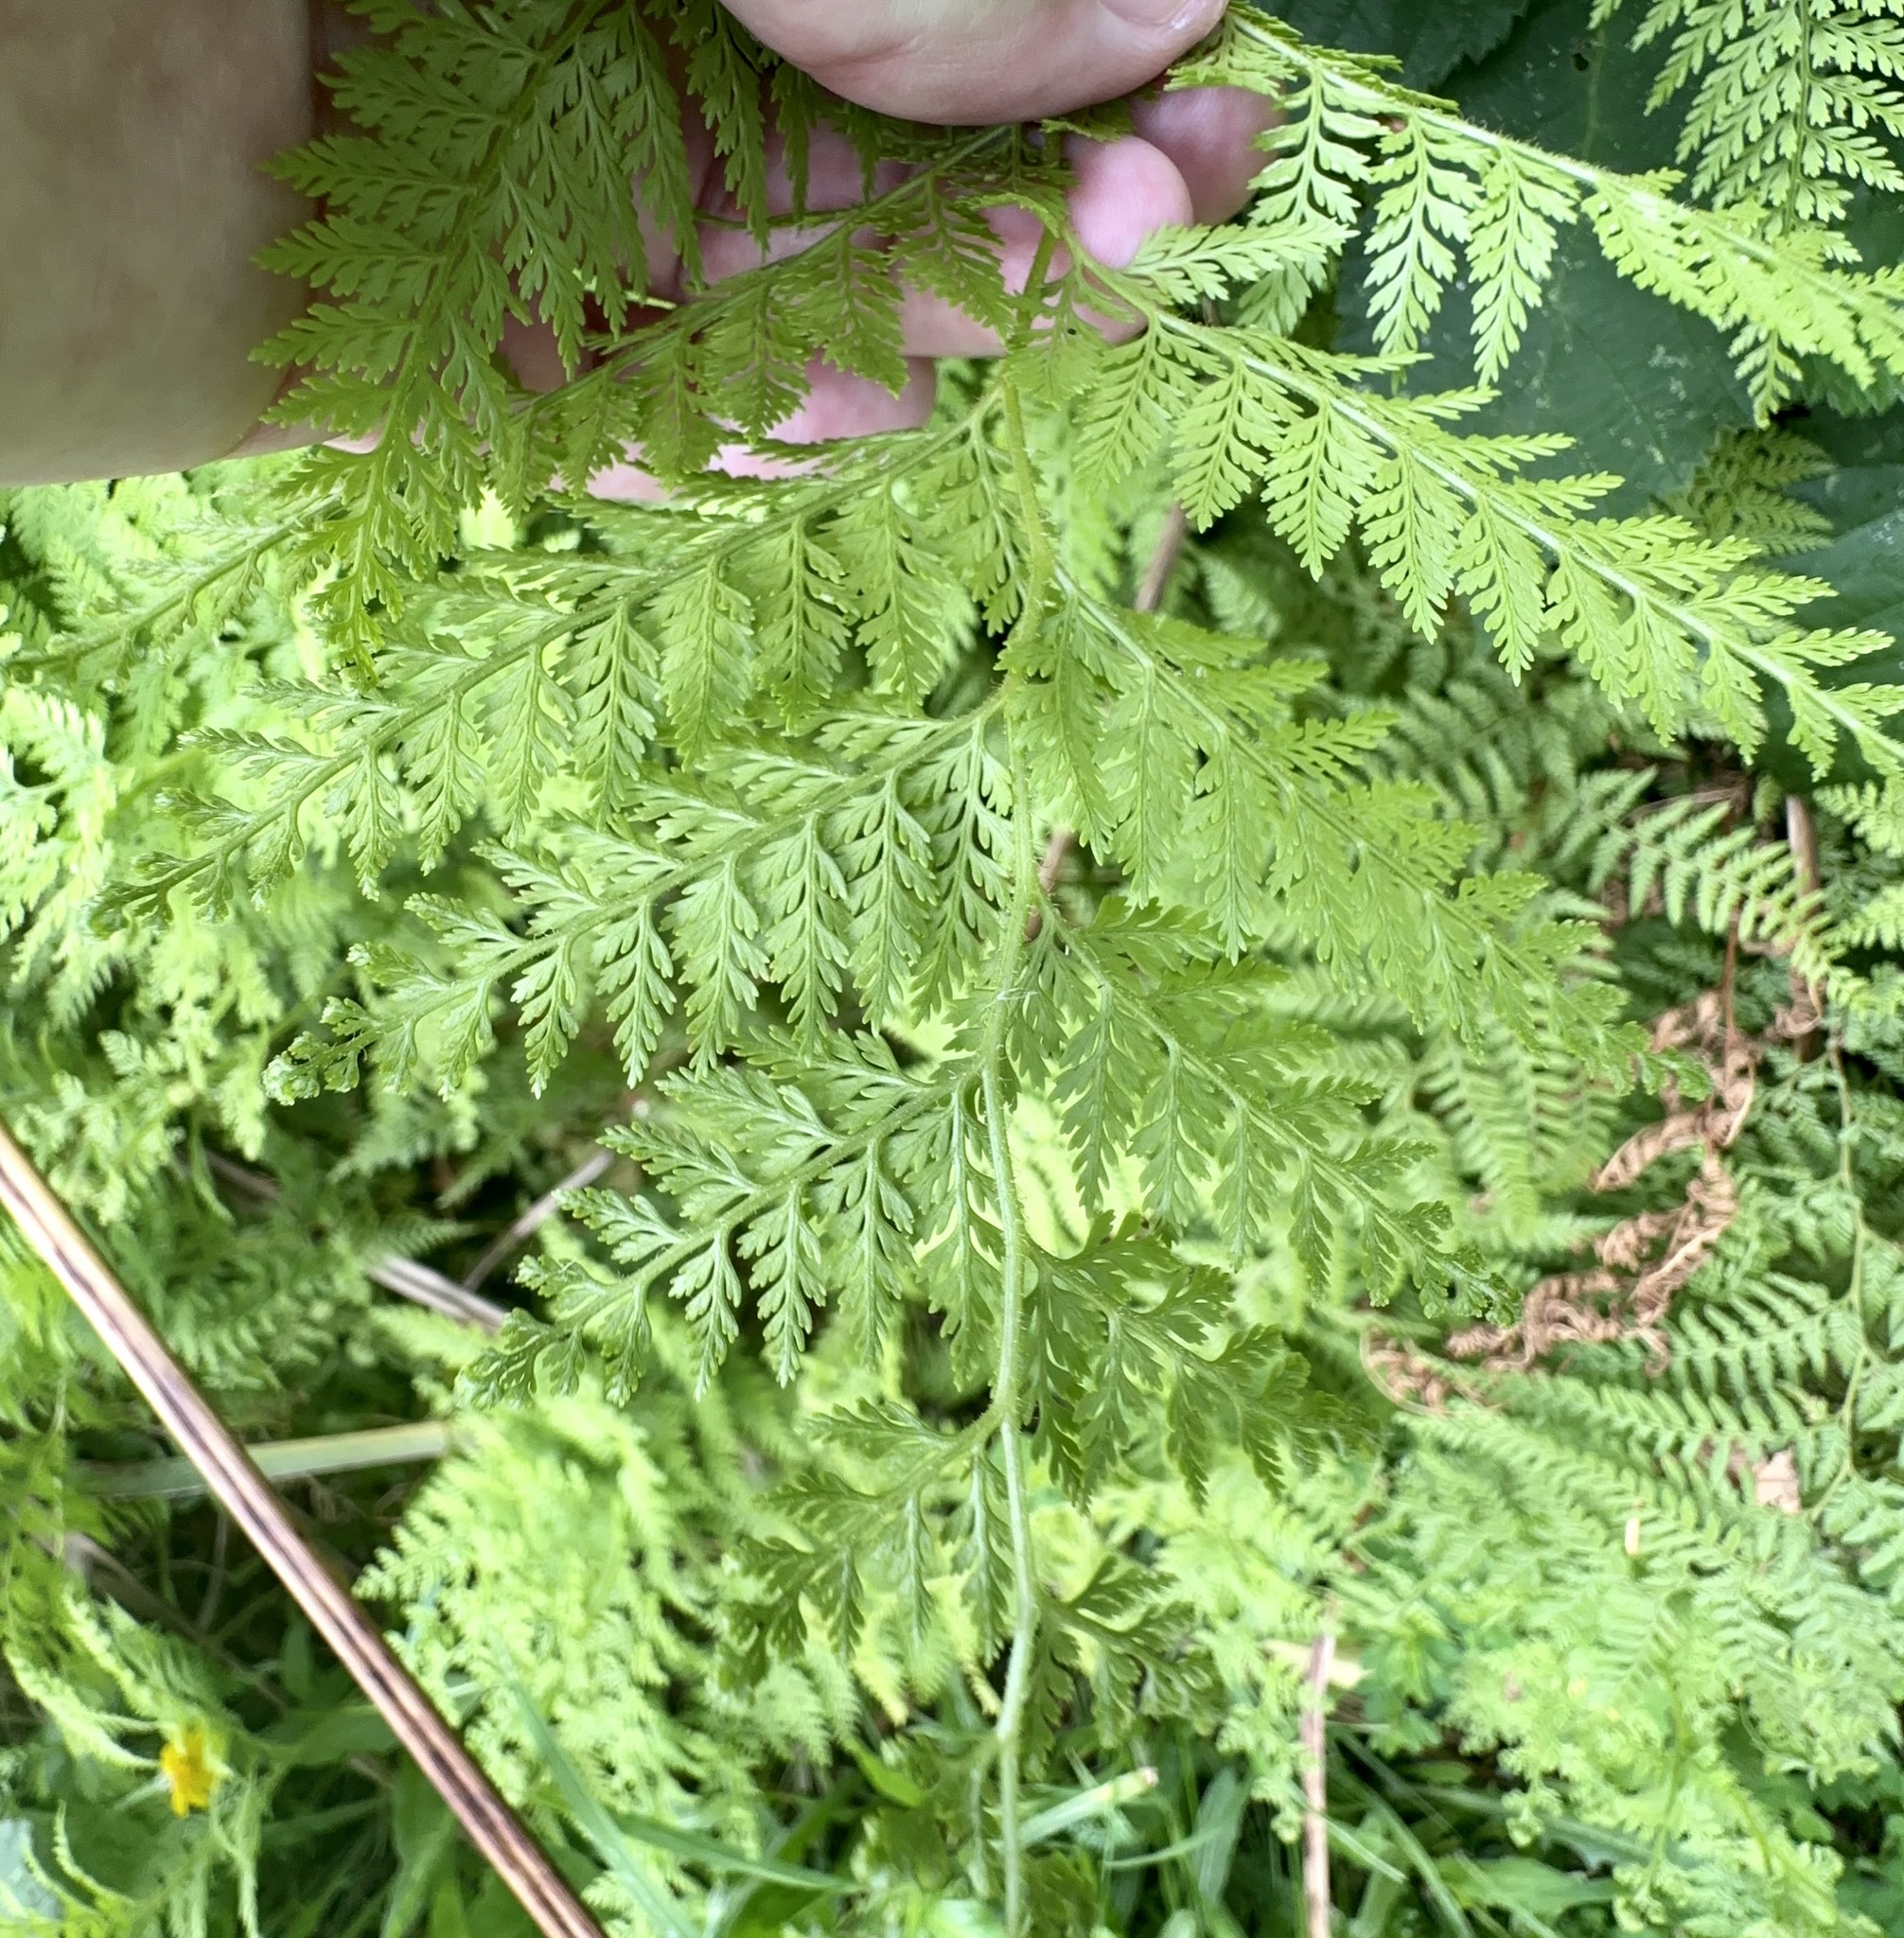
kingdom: Plantae
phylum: Tracheophyta
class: Polypodiopsida
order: Polypodiales
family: Dennstaedtiaceae
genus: Paesia
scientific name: Paesia scaberula
